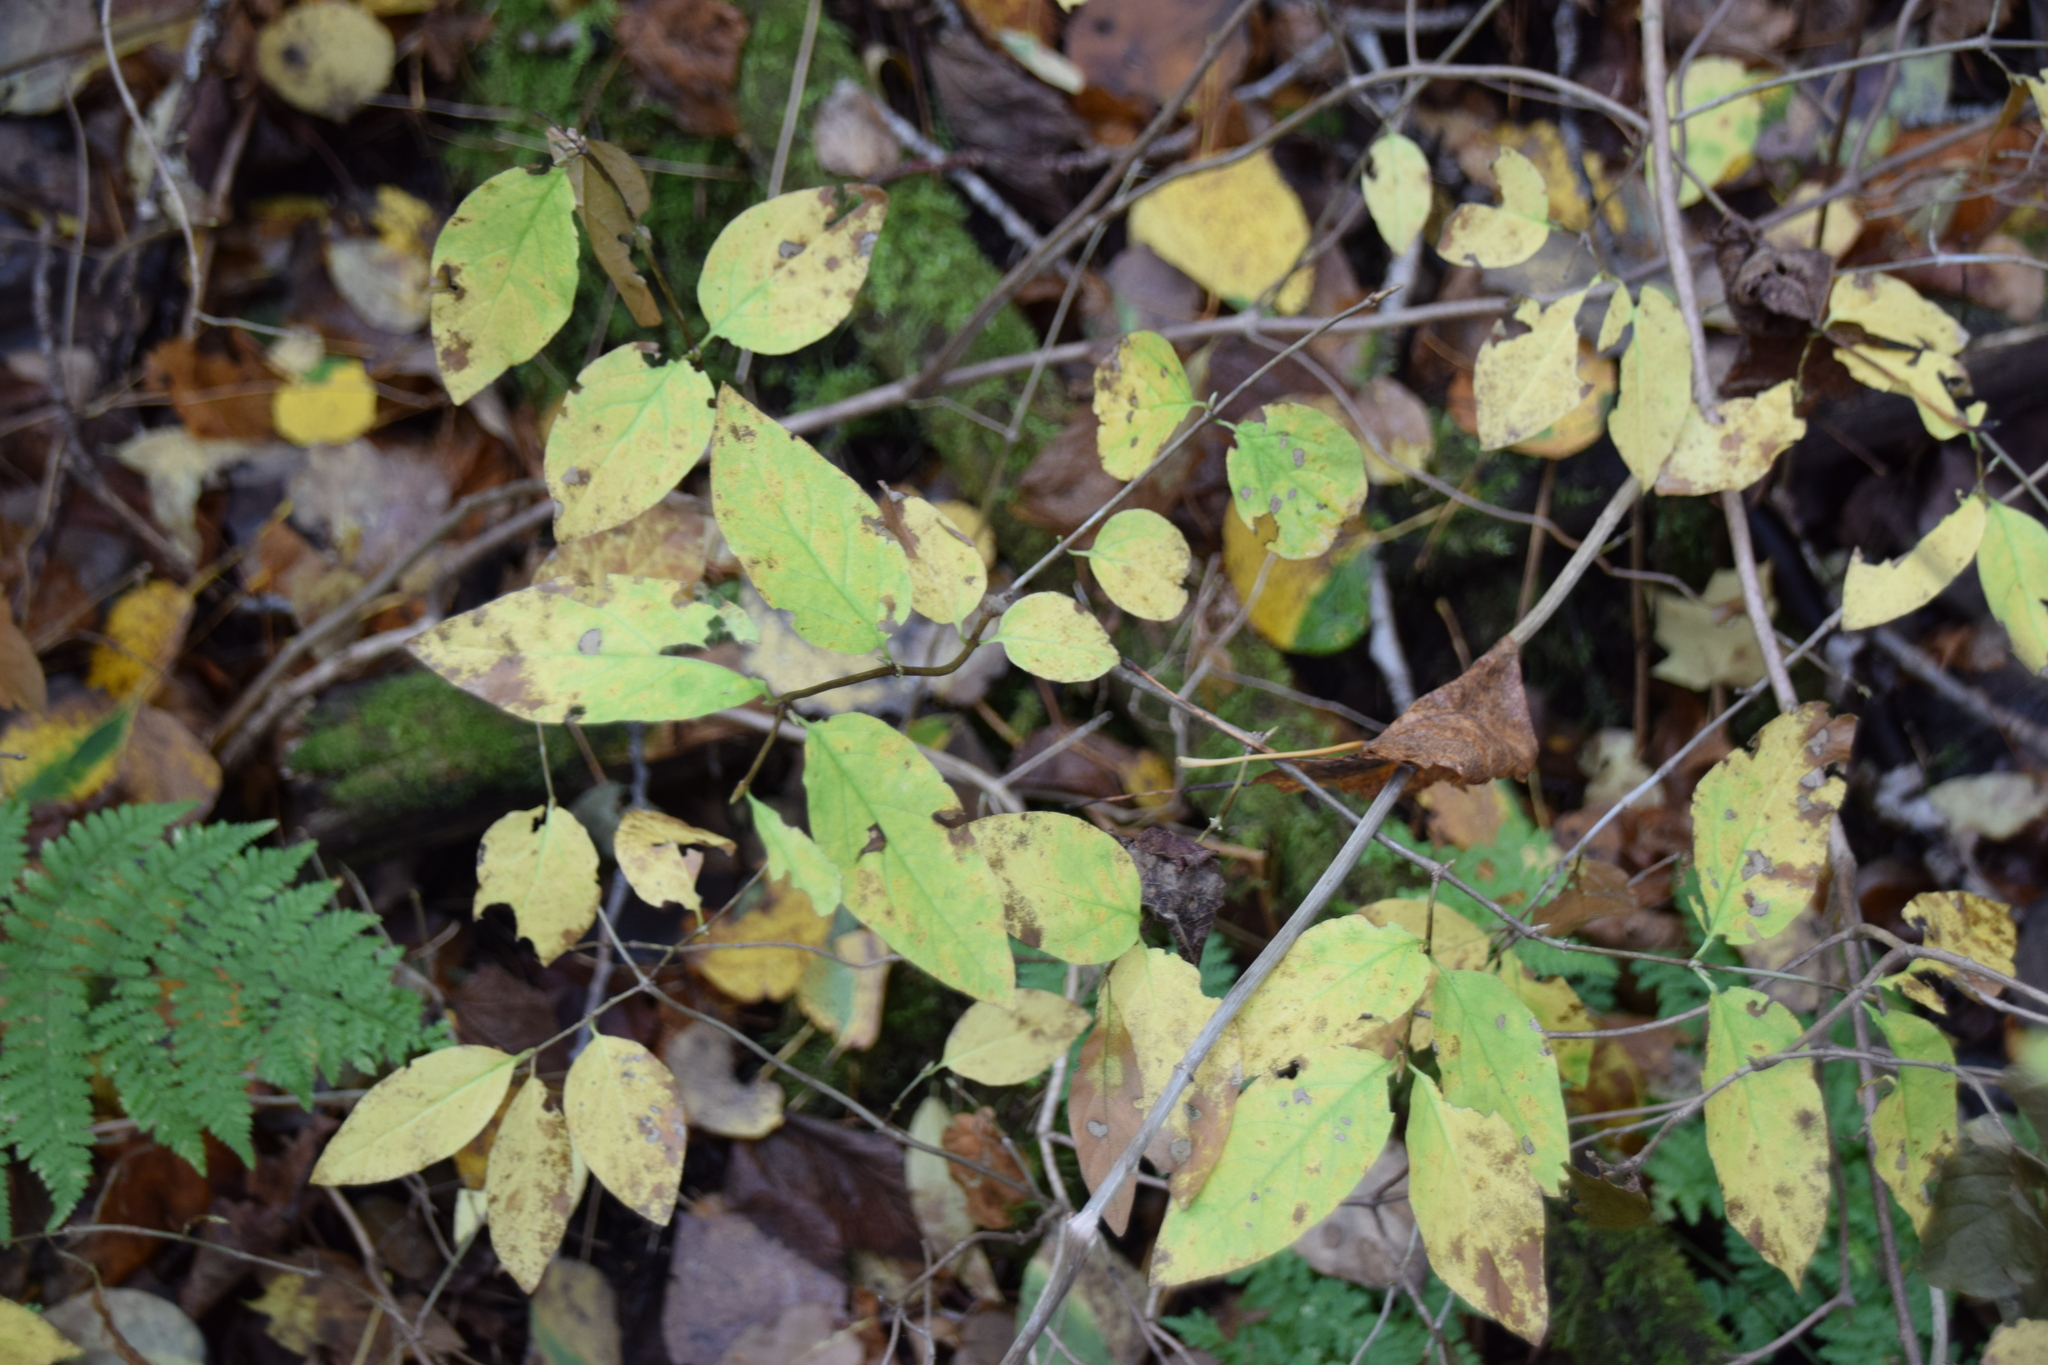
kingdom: Plantae
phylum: Tracheophyta
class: Magnoliopsida
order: Dipsacales
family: Caprifoliaceae
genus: Lonicera
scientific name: Lonicera canadensis
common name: American fly-honeysuckle
